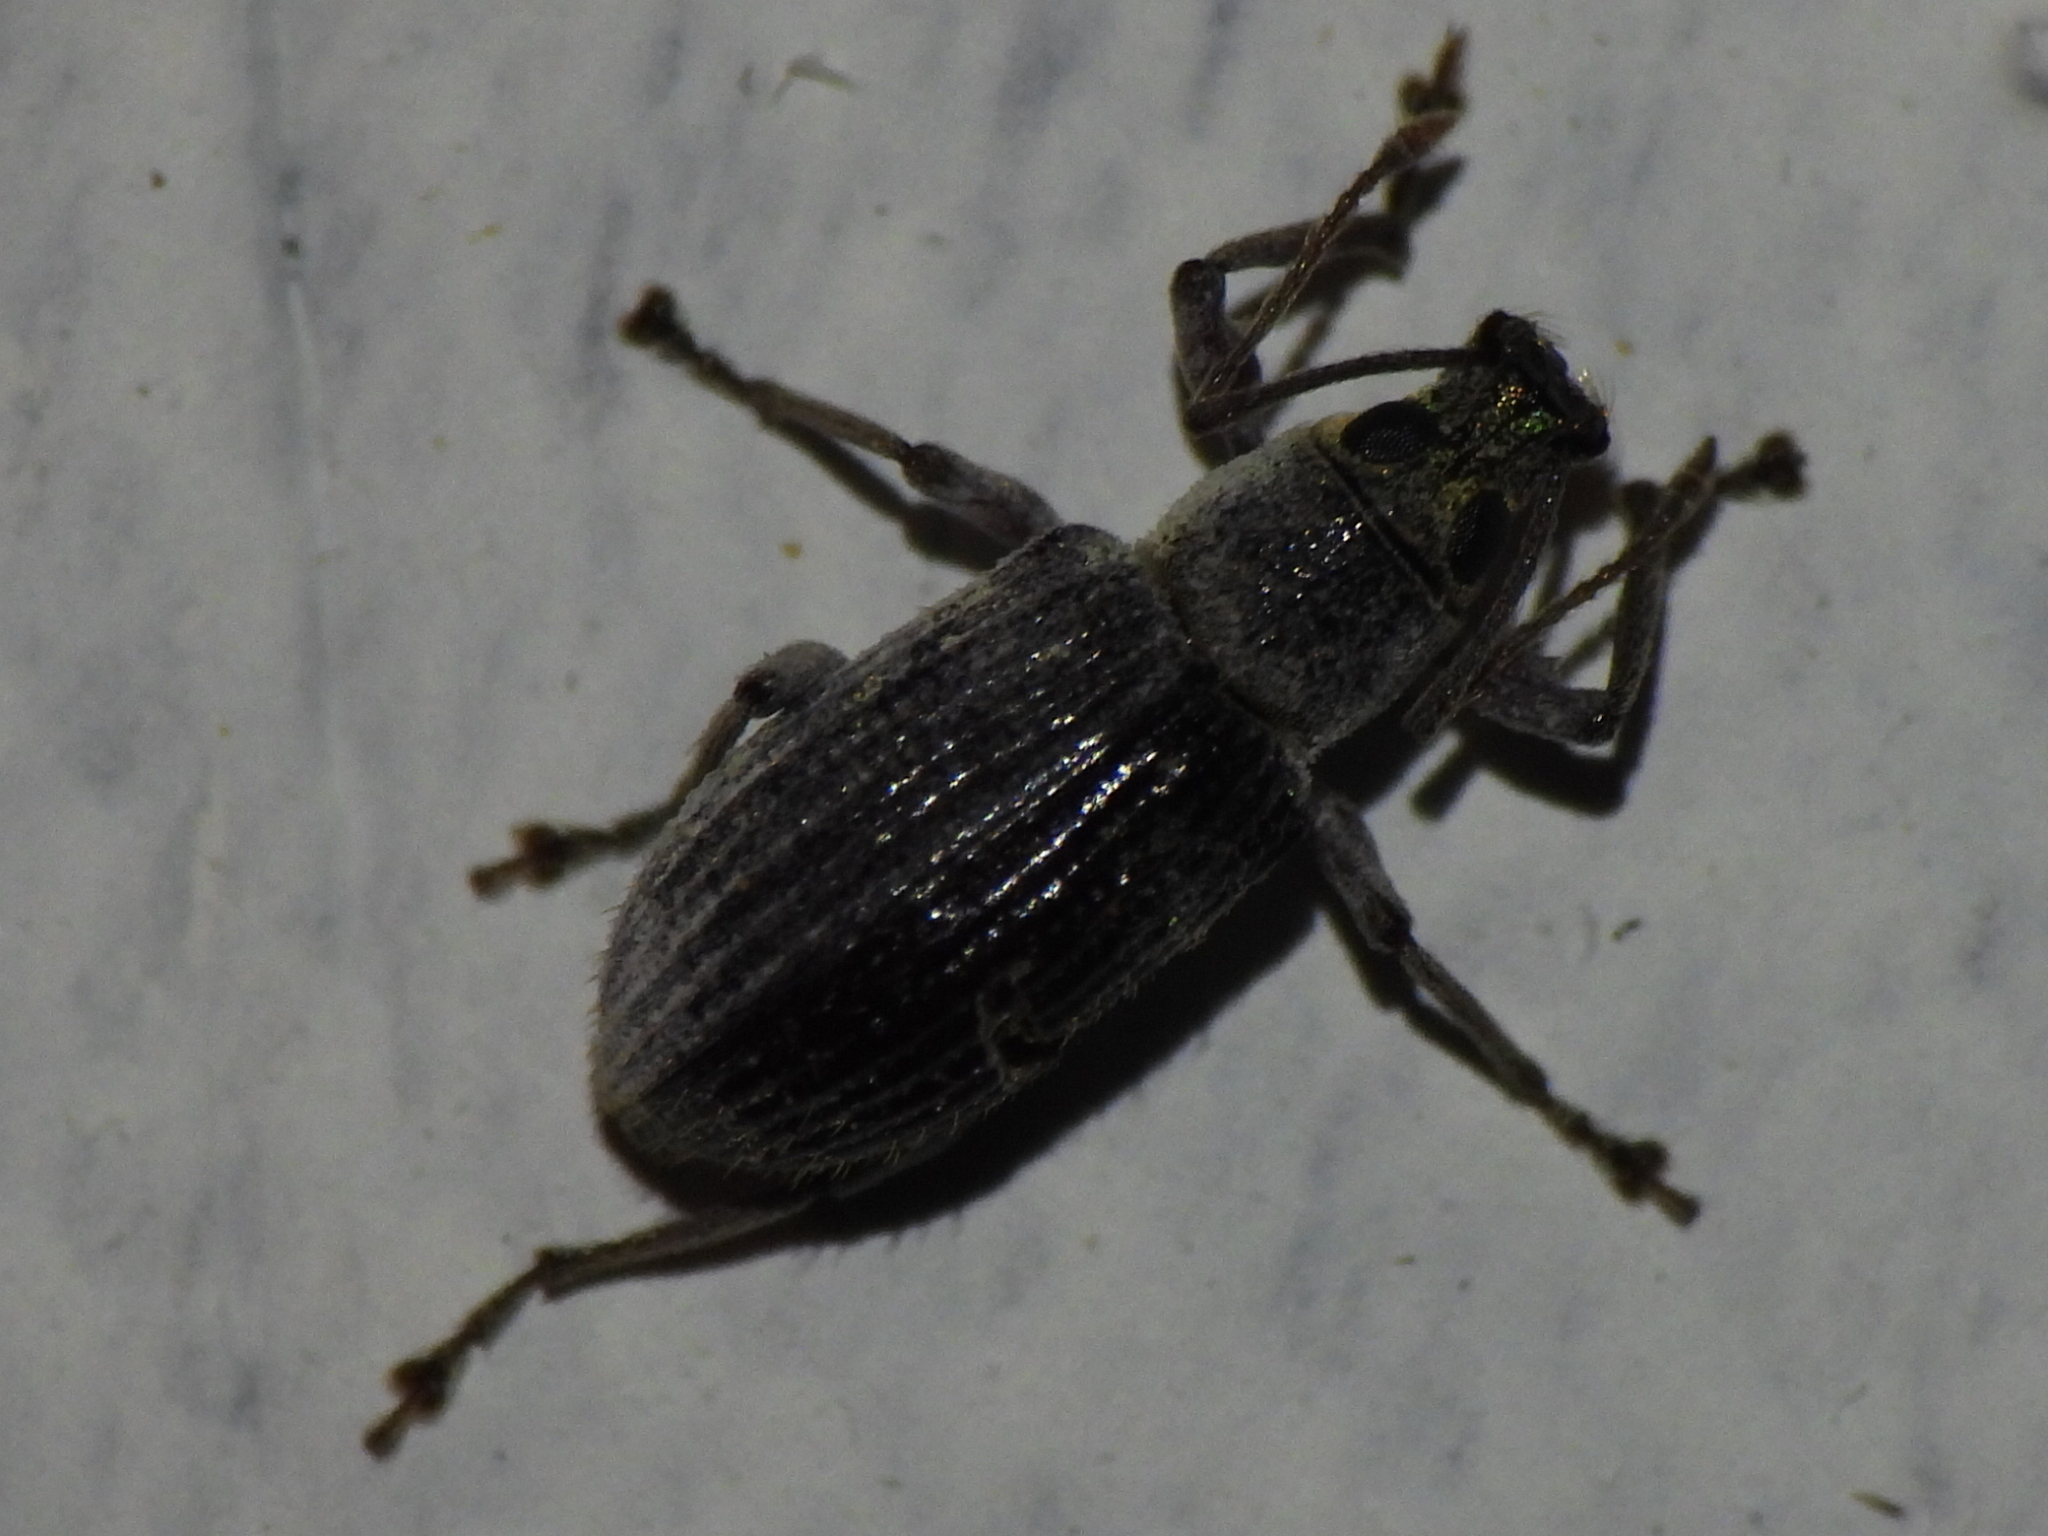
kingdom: Animalia
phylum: Arthropoda
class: Insecta
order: Coleoptera
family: Curculionidae
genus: Cyrtepistomus
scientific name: Cyrtepistomus castaneus
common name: Weevil
